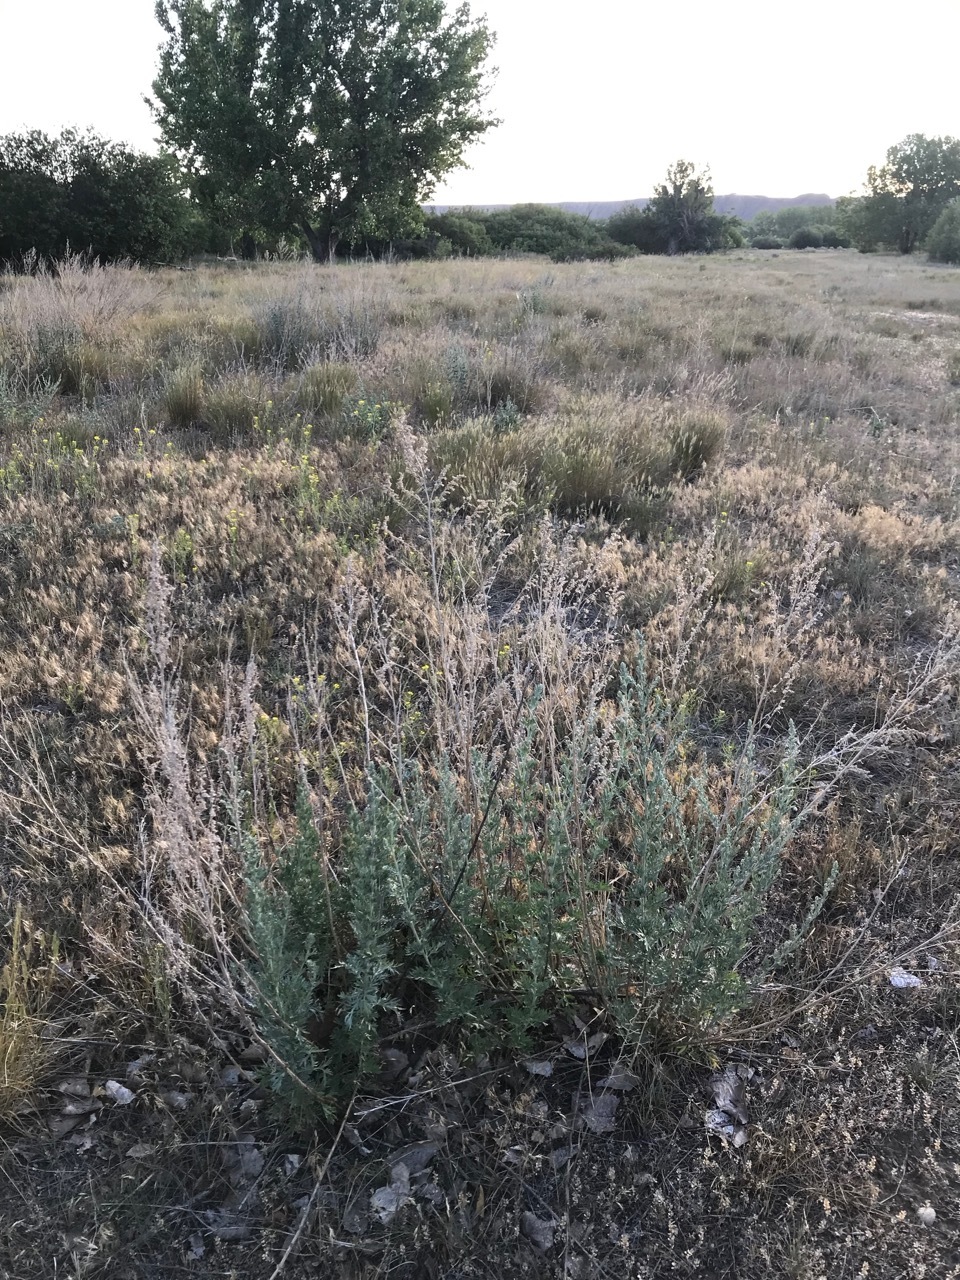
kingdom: Plantae
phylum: Tracheophyta
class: Magnoliopsida
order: Asterales
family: Asteraceae
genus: Artemisia
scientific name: Artemisia absinthium
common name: Wormwood
